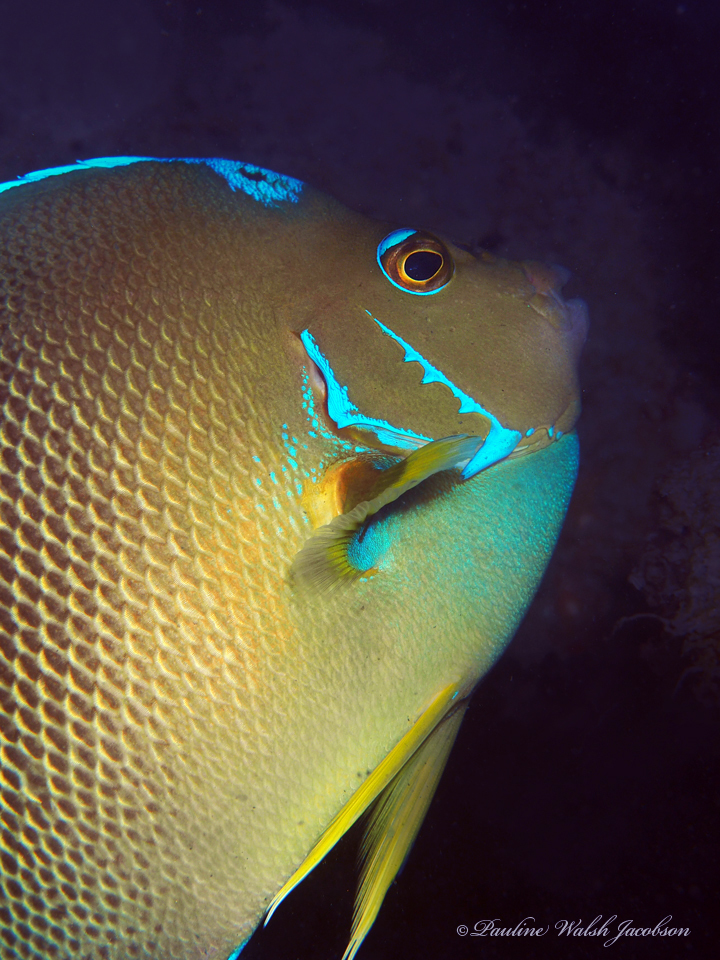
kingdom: Animalia
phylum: Chordata
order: Perciformes
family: Pomacanthidae
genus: Holacanthus
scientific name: Holacanthus ciliaris
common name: Queen angelfish
